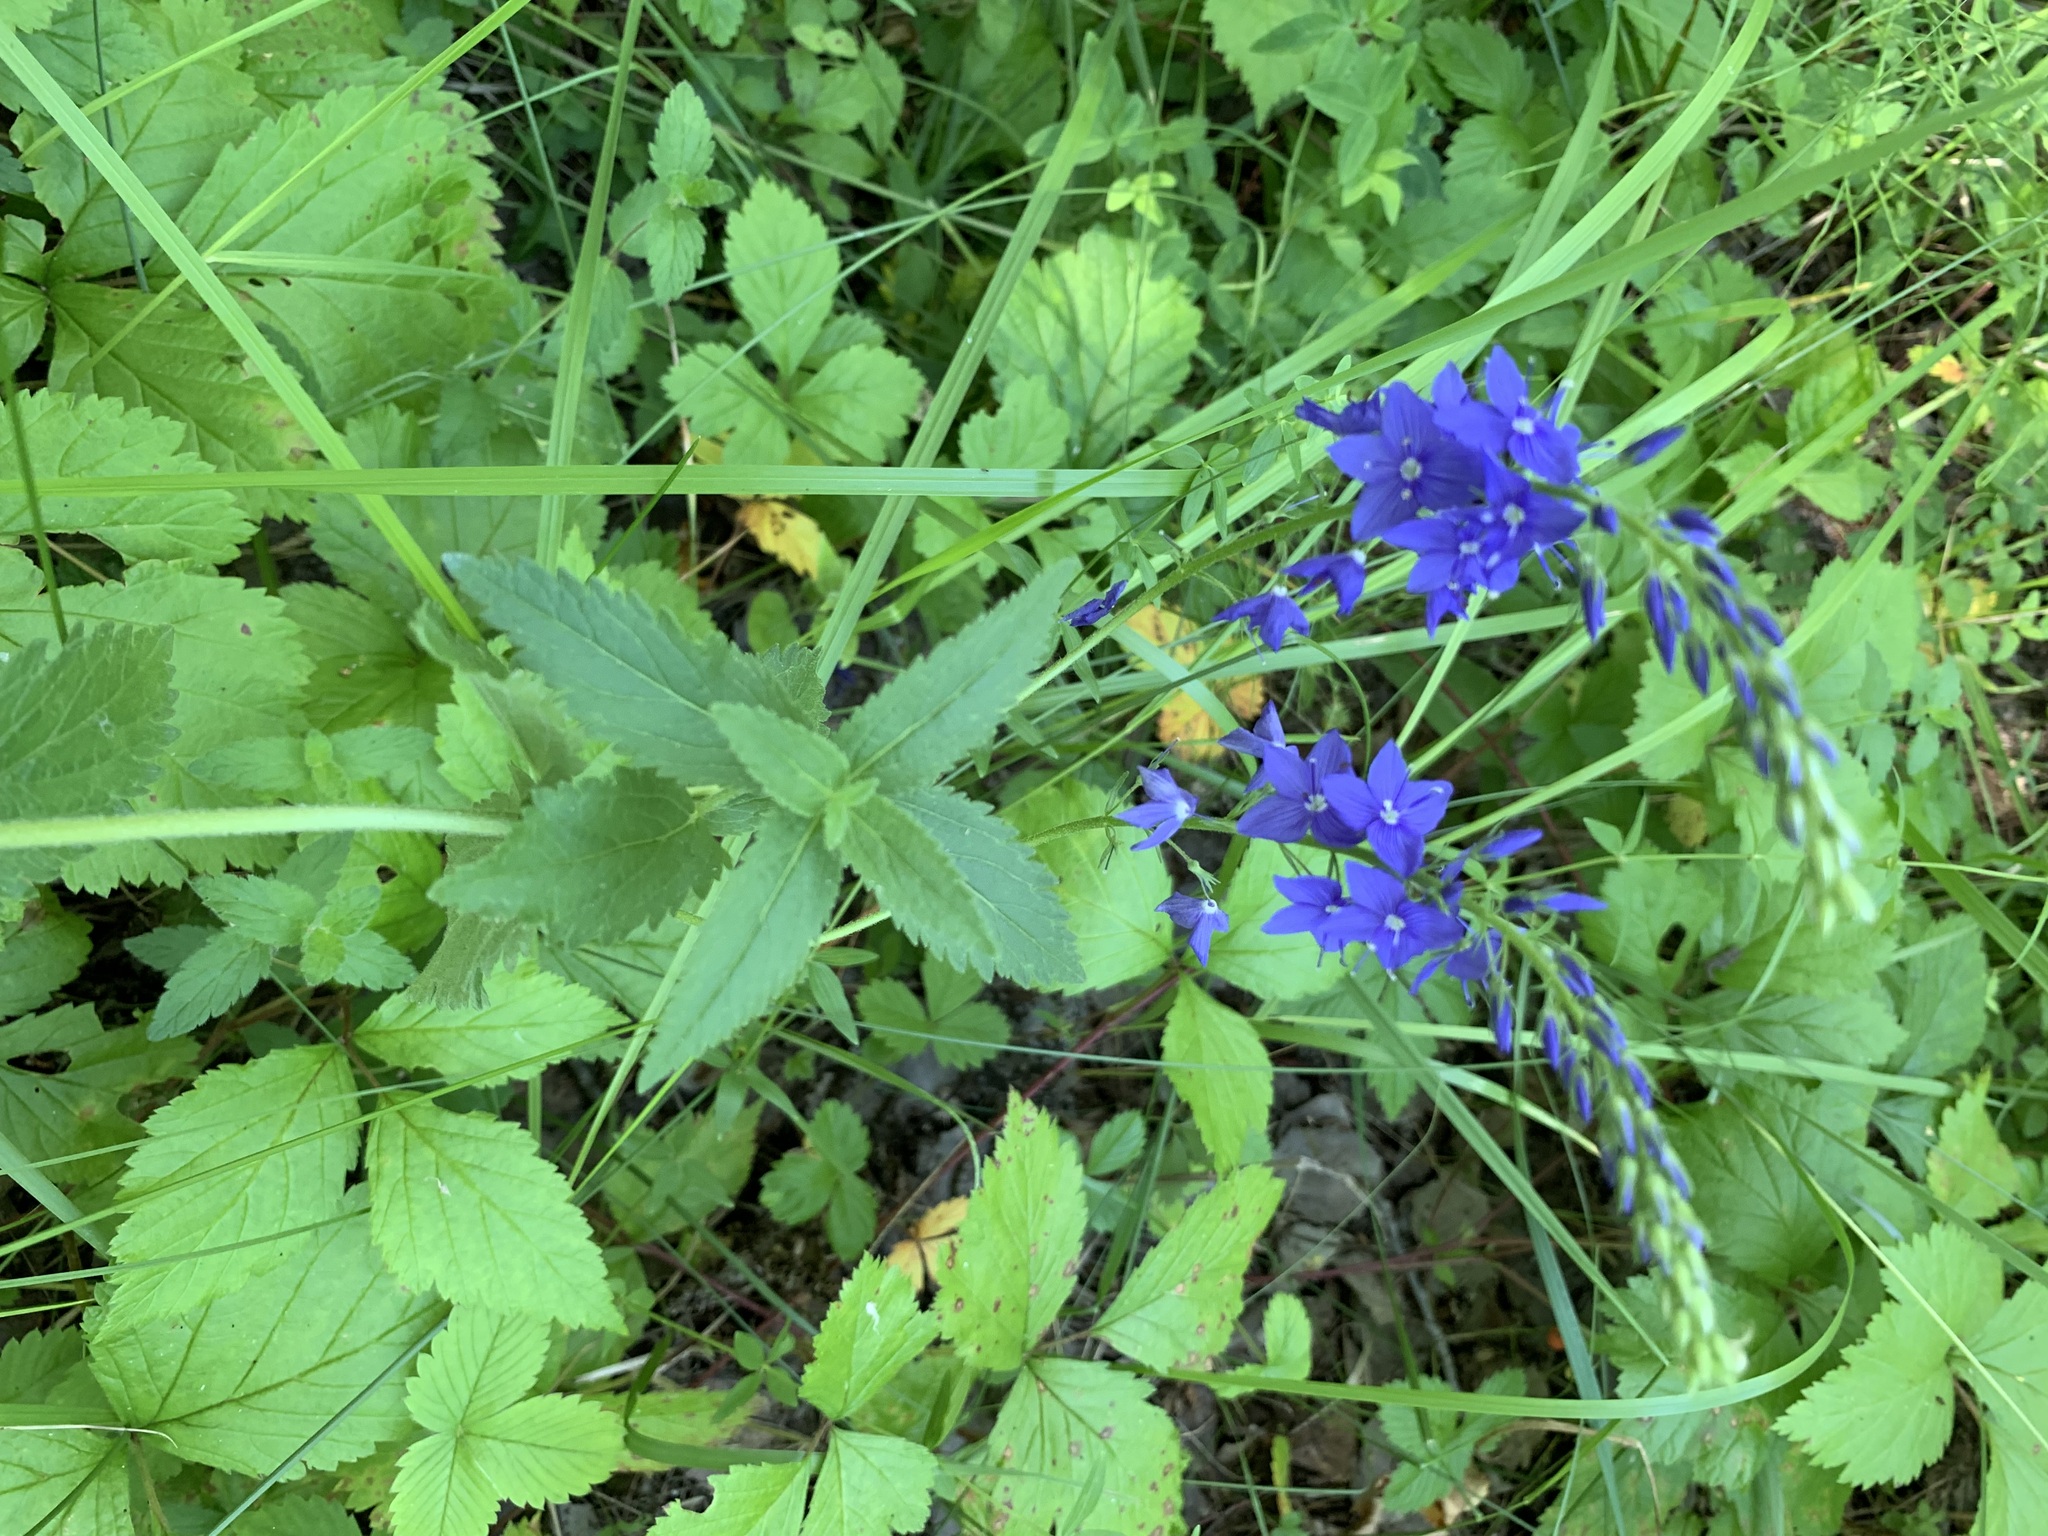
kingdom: Plantae
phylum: Tracheophyta
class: Magnoliopsida
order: Lamiales
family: Plantaginaceae
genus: Veronica
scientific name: Veronica teucrium
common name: Large speedwell
